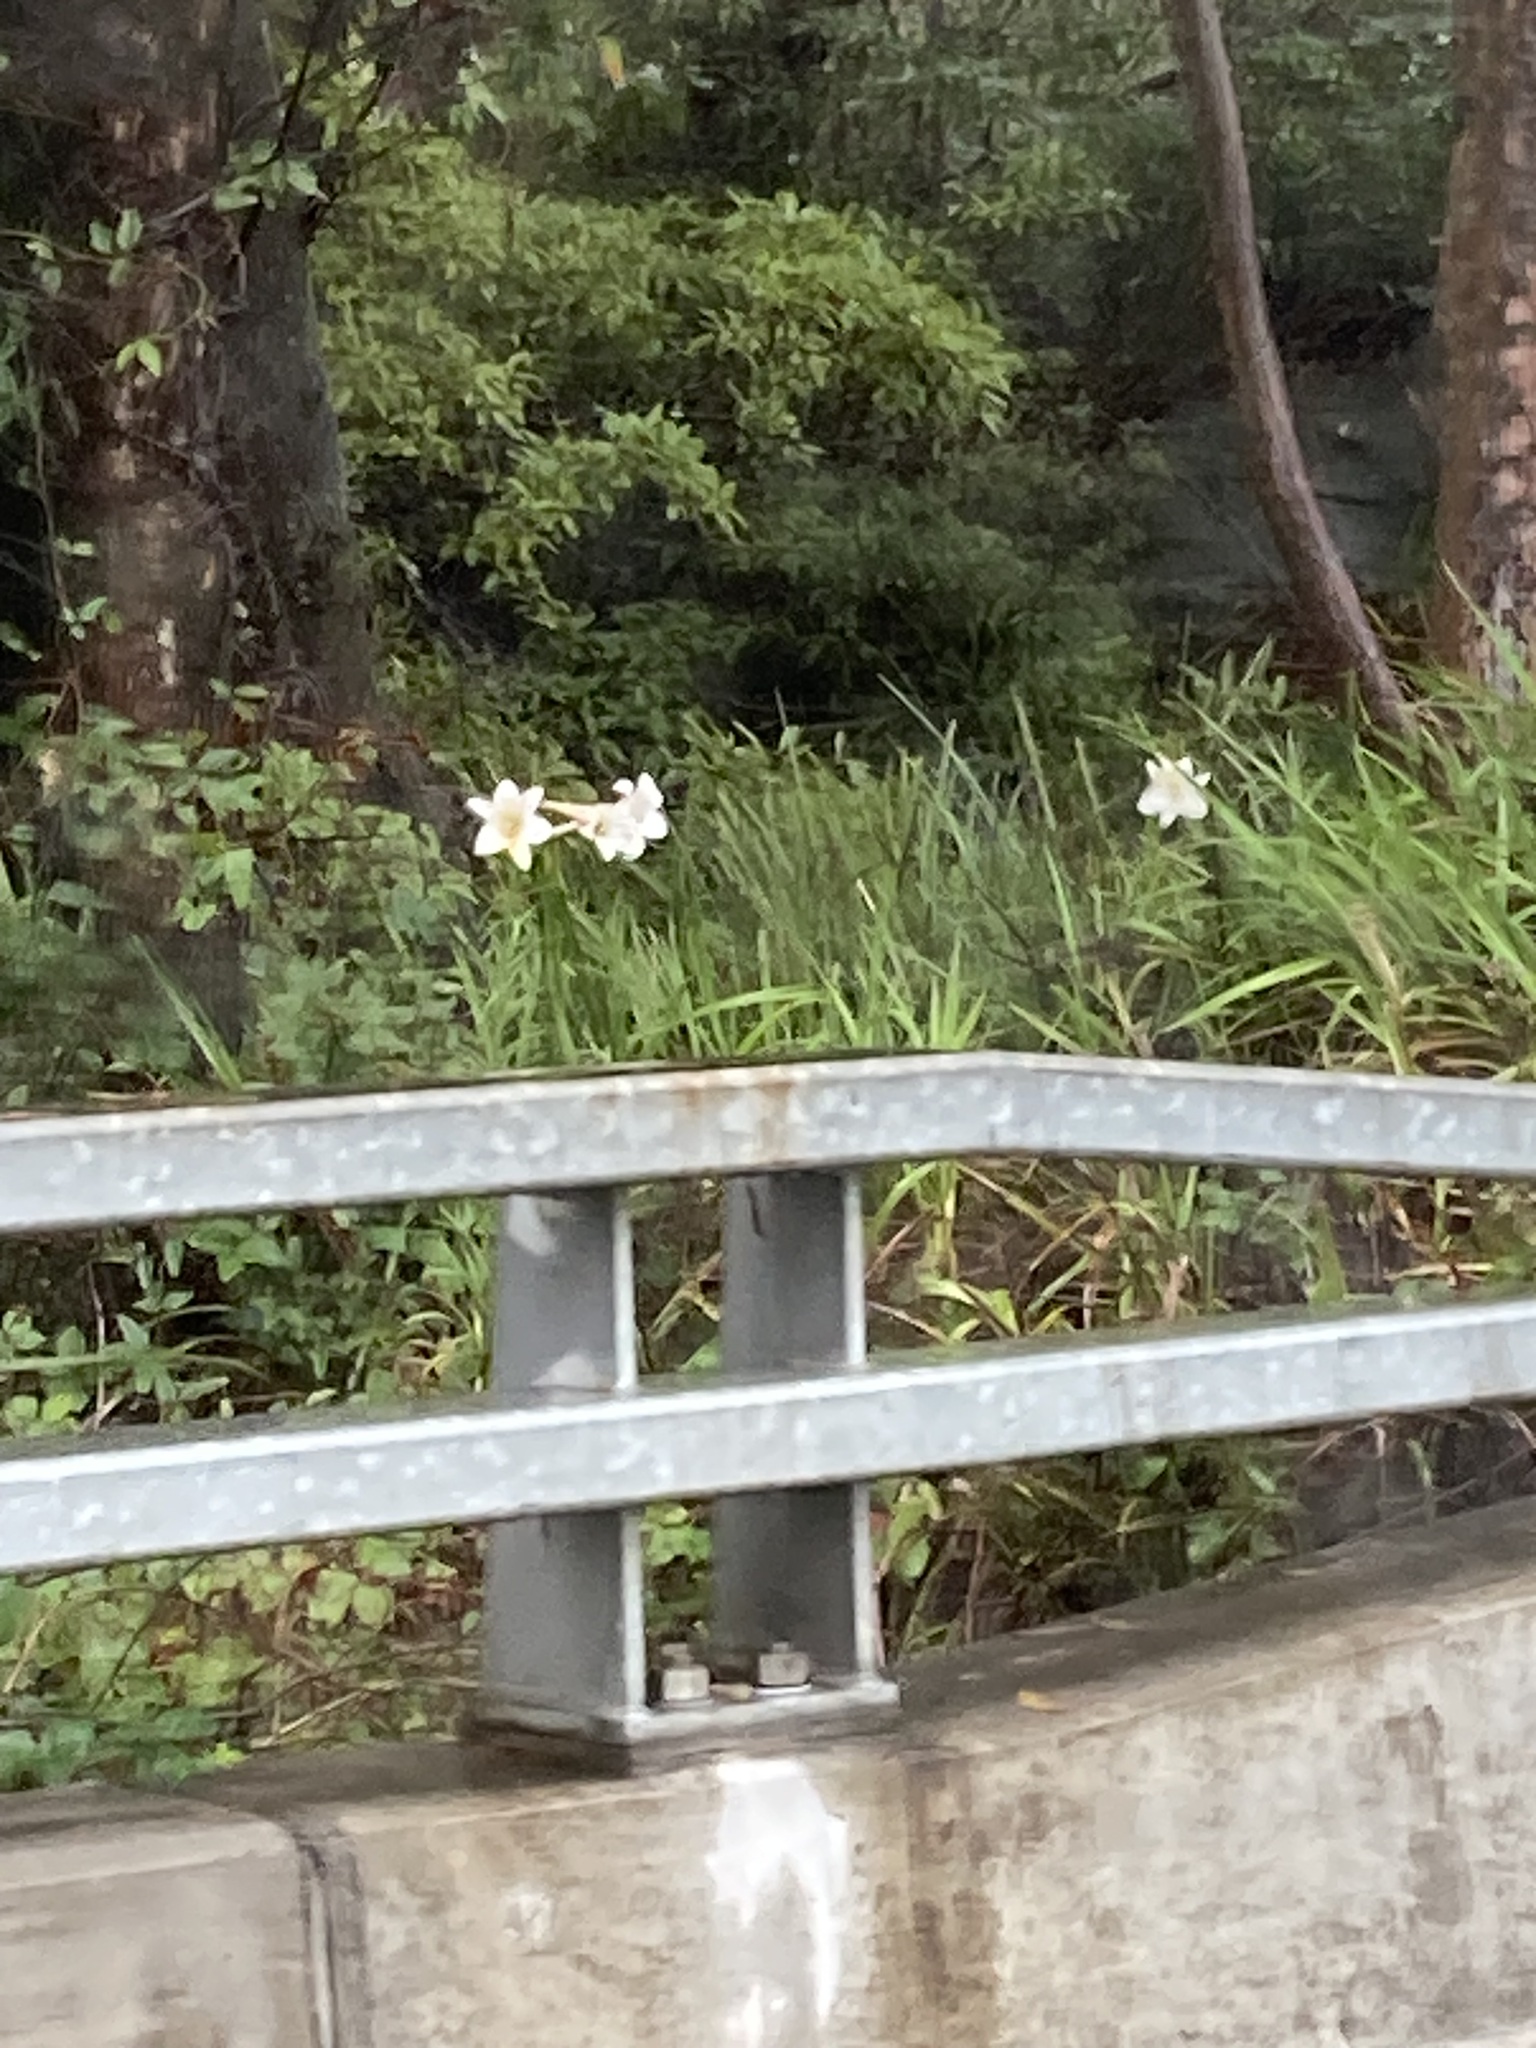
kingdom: Plantae
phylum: Tracheophyta
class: Liliopsida
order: Liliales
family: Liliaceae
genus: Lilium
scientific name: Lilium formosanum
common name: Formosa lily
